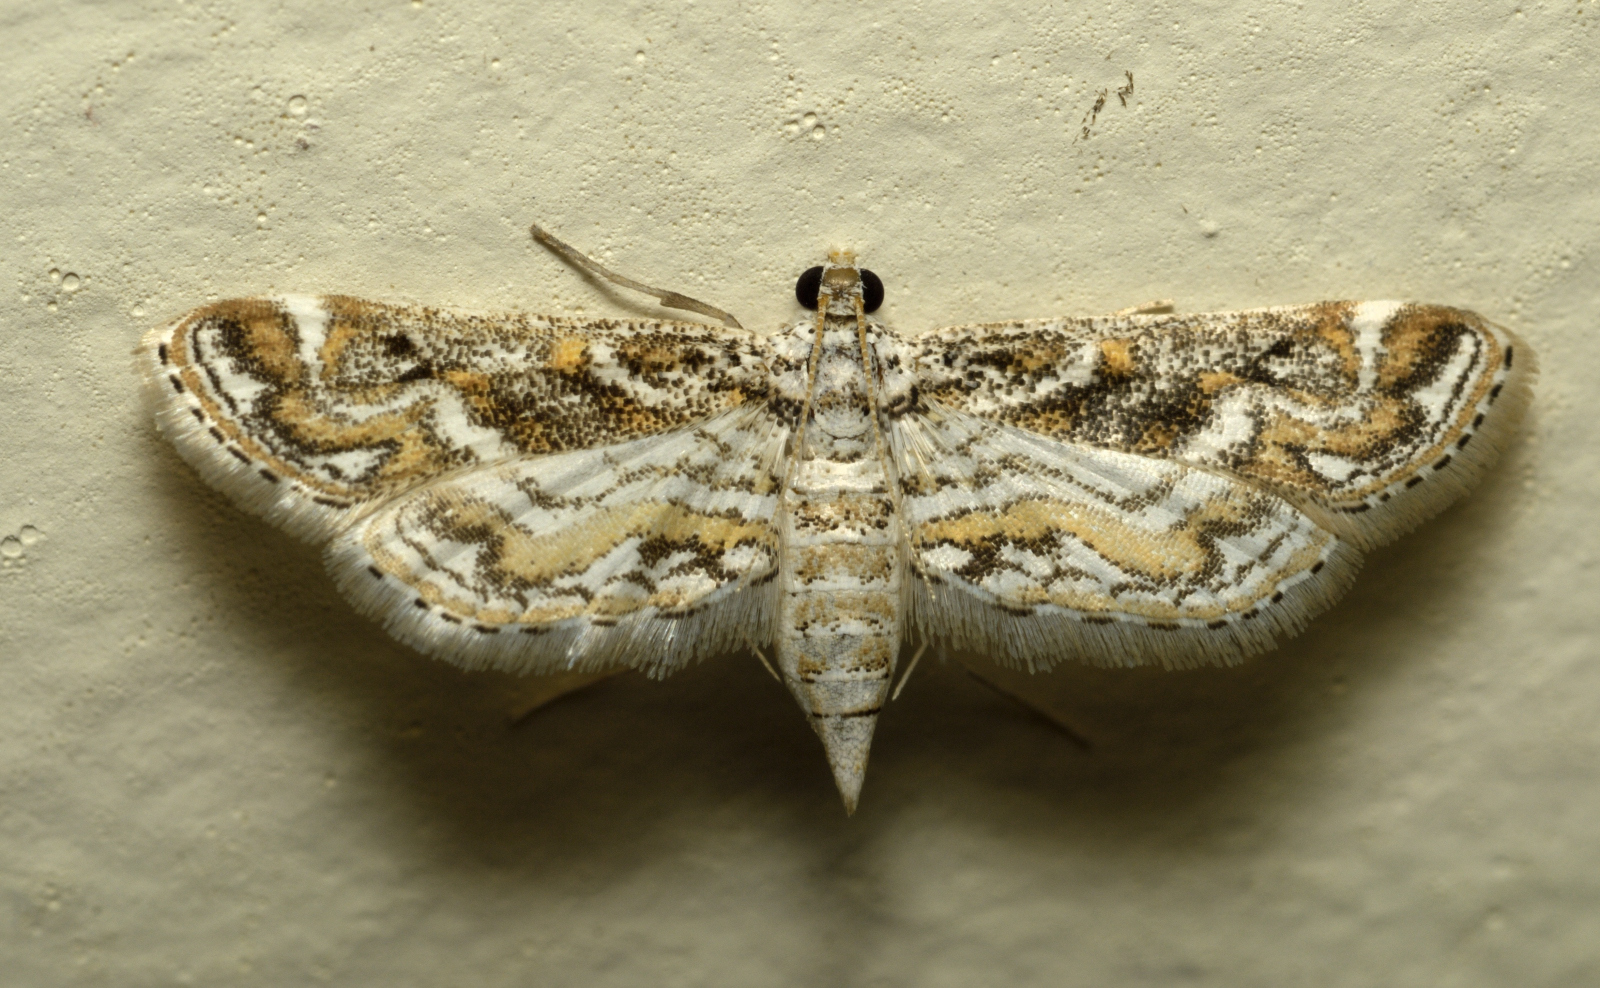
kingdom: Animalia
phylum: Arthropoda
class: Insecta
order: Lepidoptera
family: Crambidae
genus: Parapoynx
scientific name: Parapoynx diminutalis
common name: Hydrilla leafcutter
